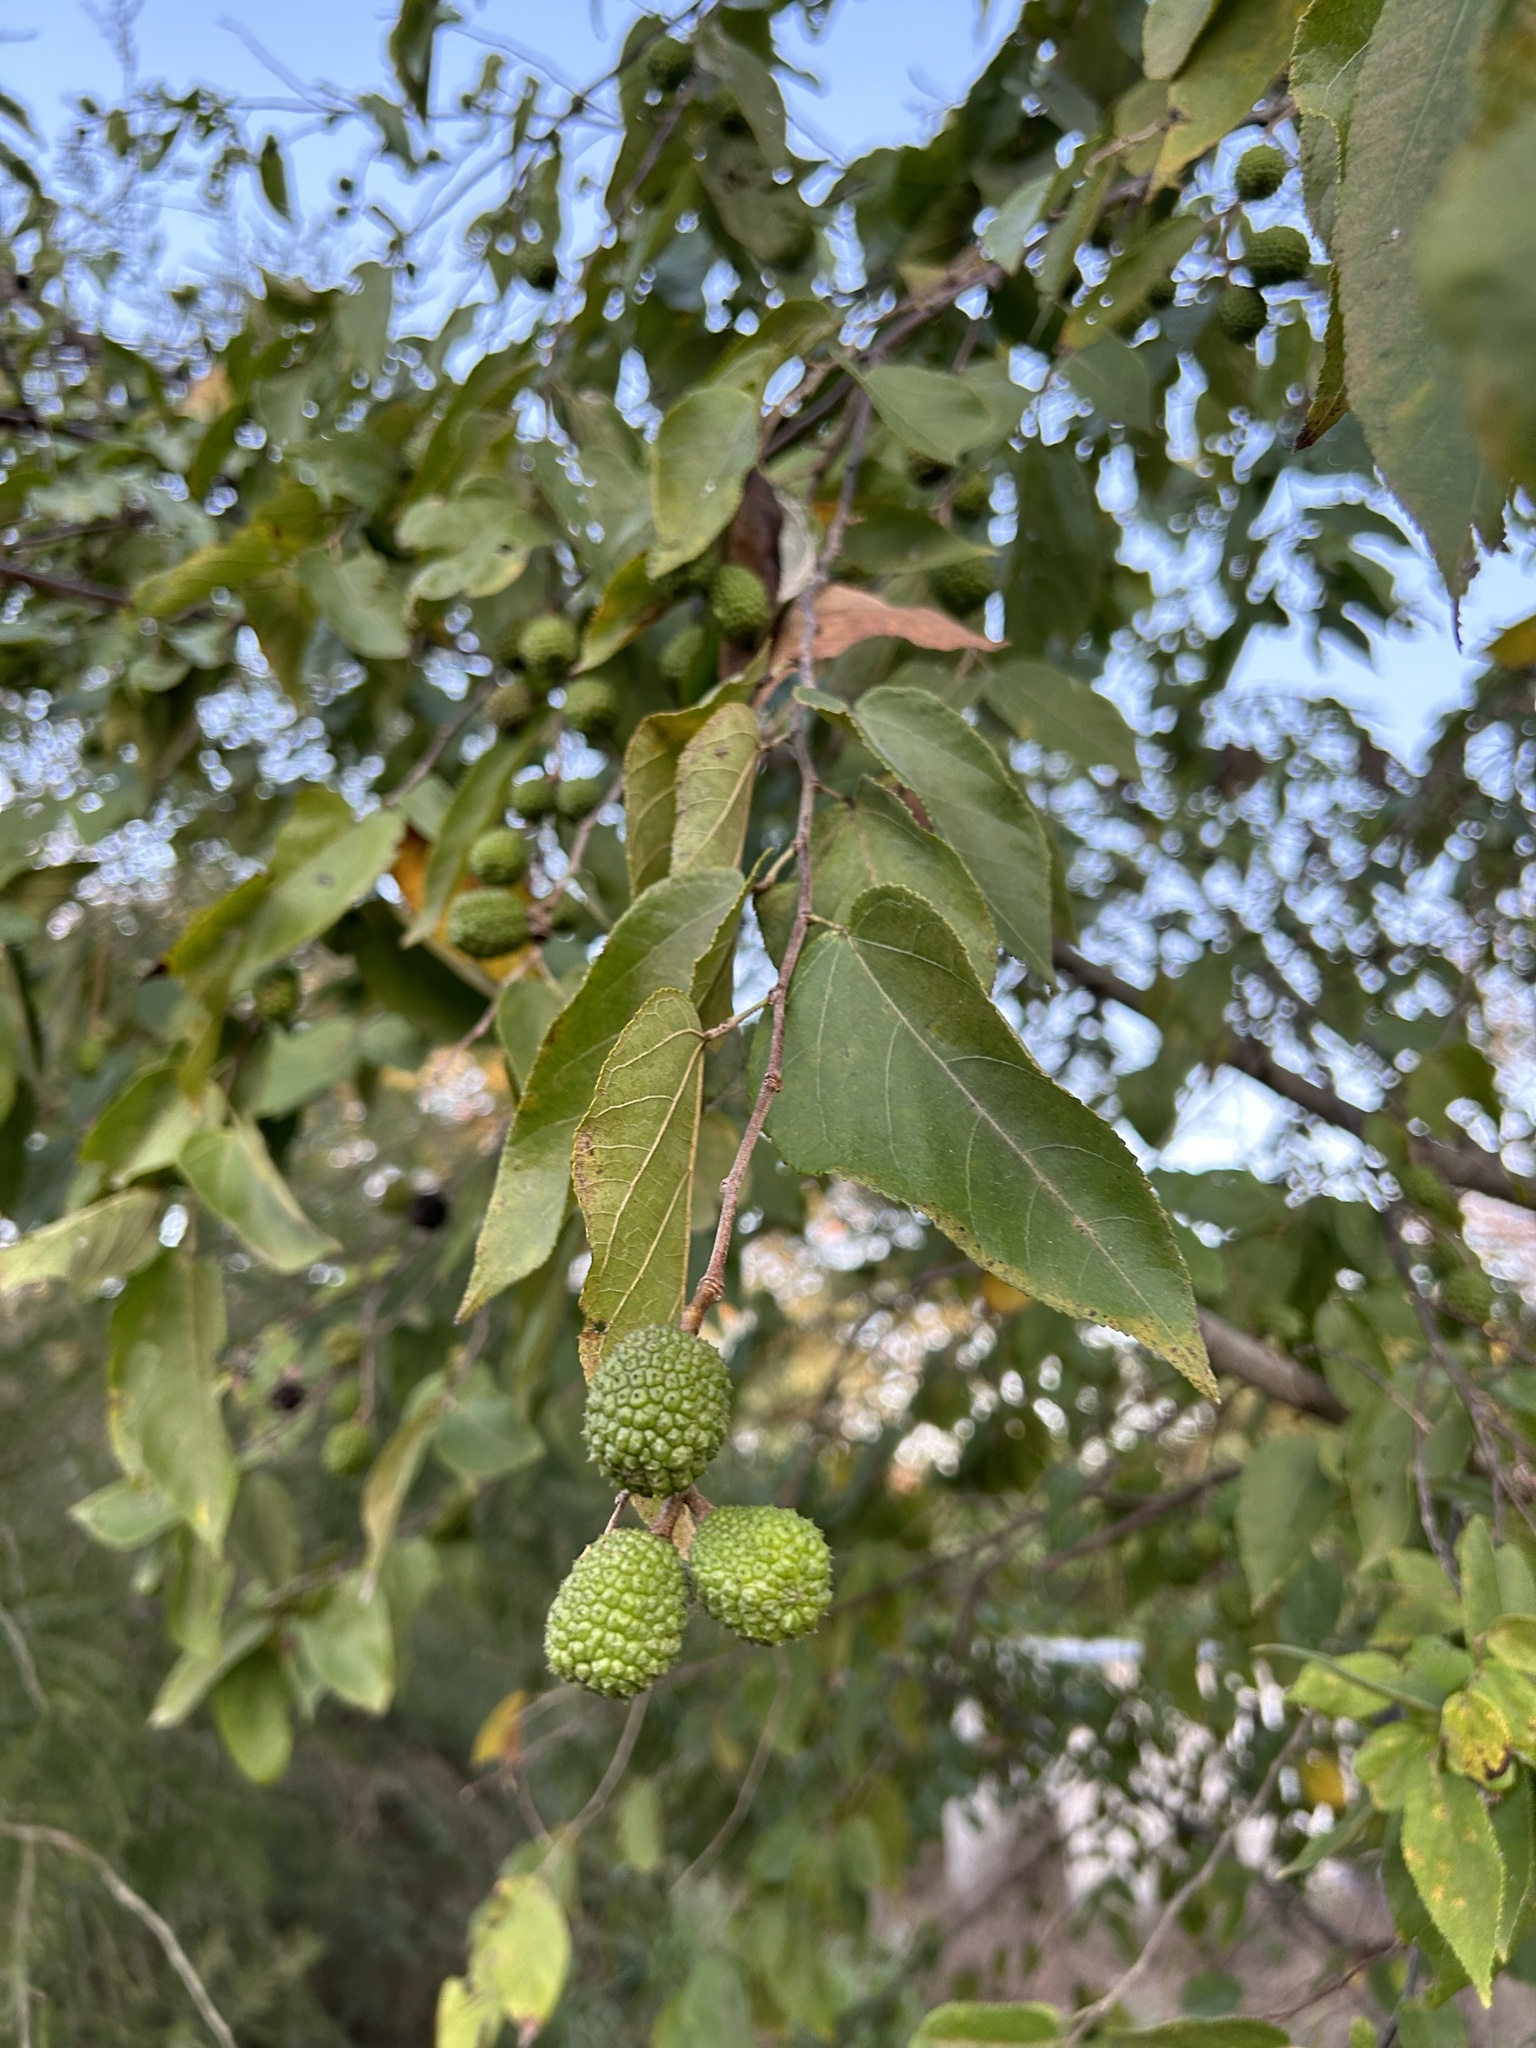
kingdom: Plantae
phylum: Tracheophyta
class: Magnoliopsida
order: Malvales
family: Malvaceae
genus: Guazuma
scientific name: Guazuma ulmifolia
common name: Bastard-cedar
